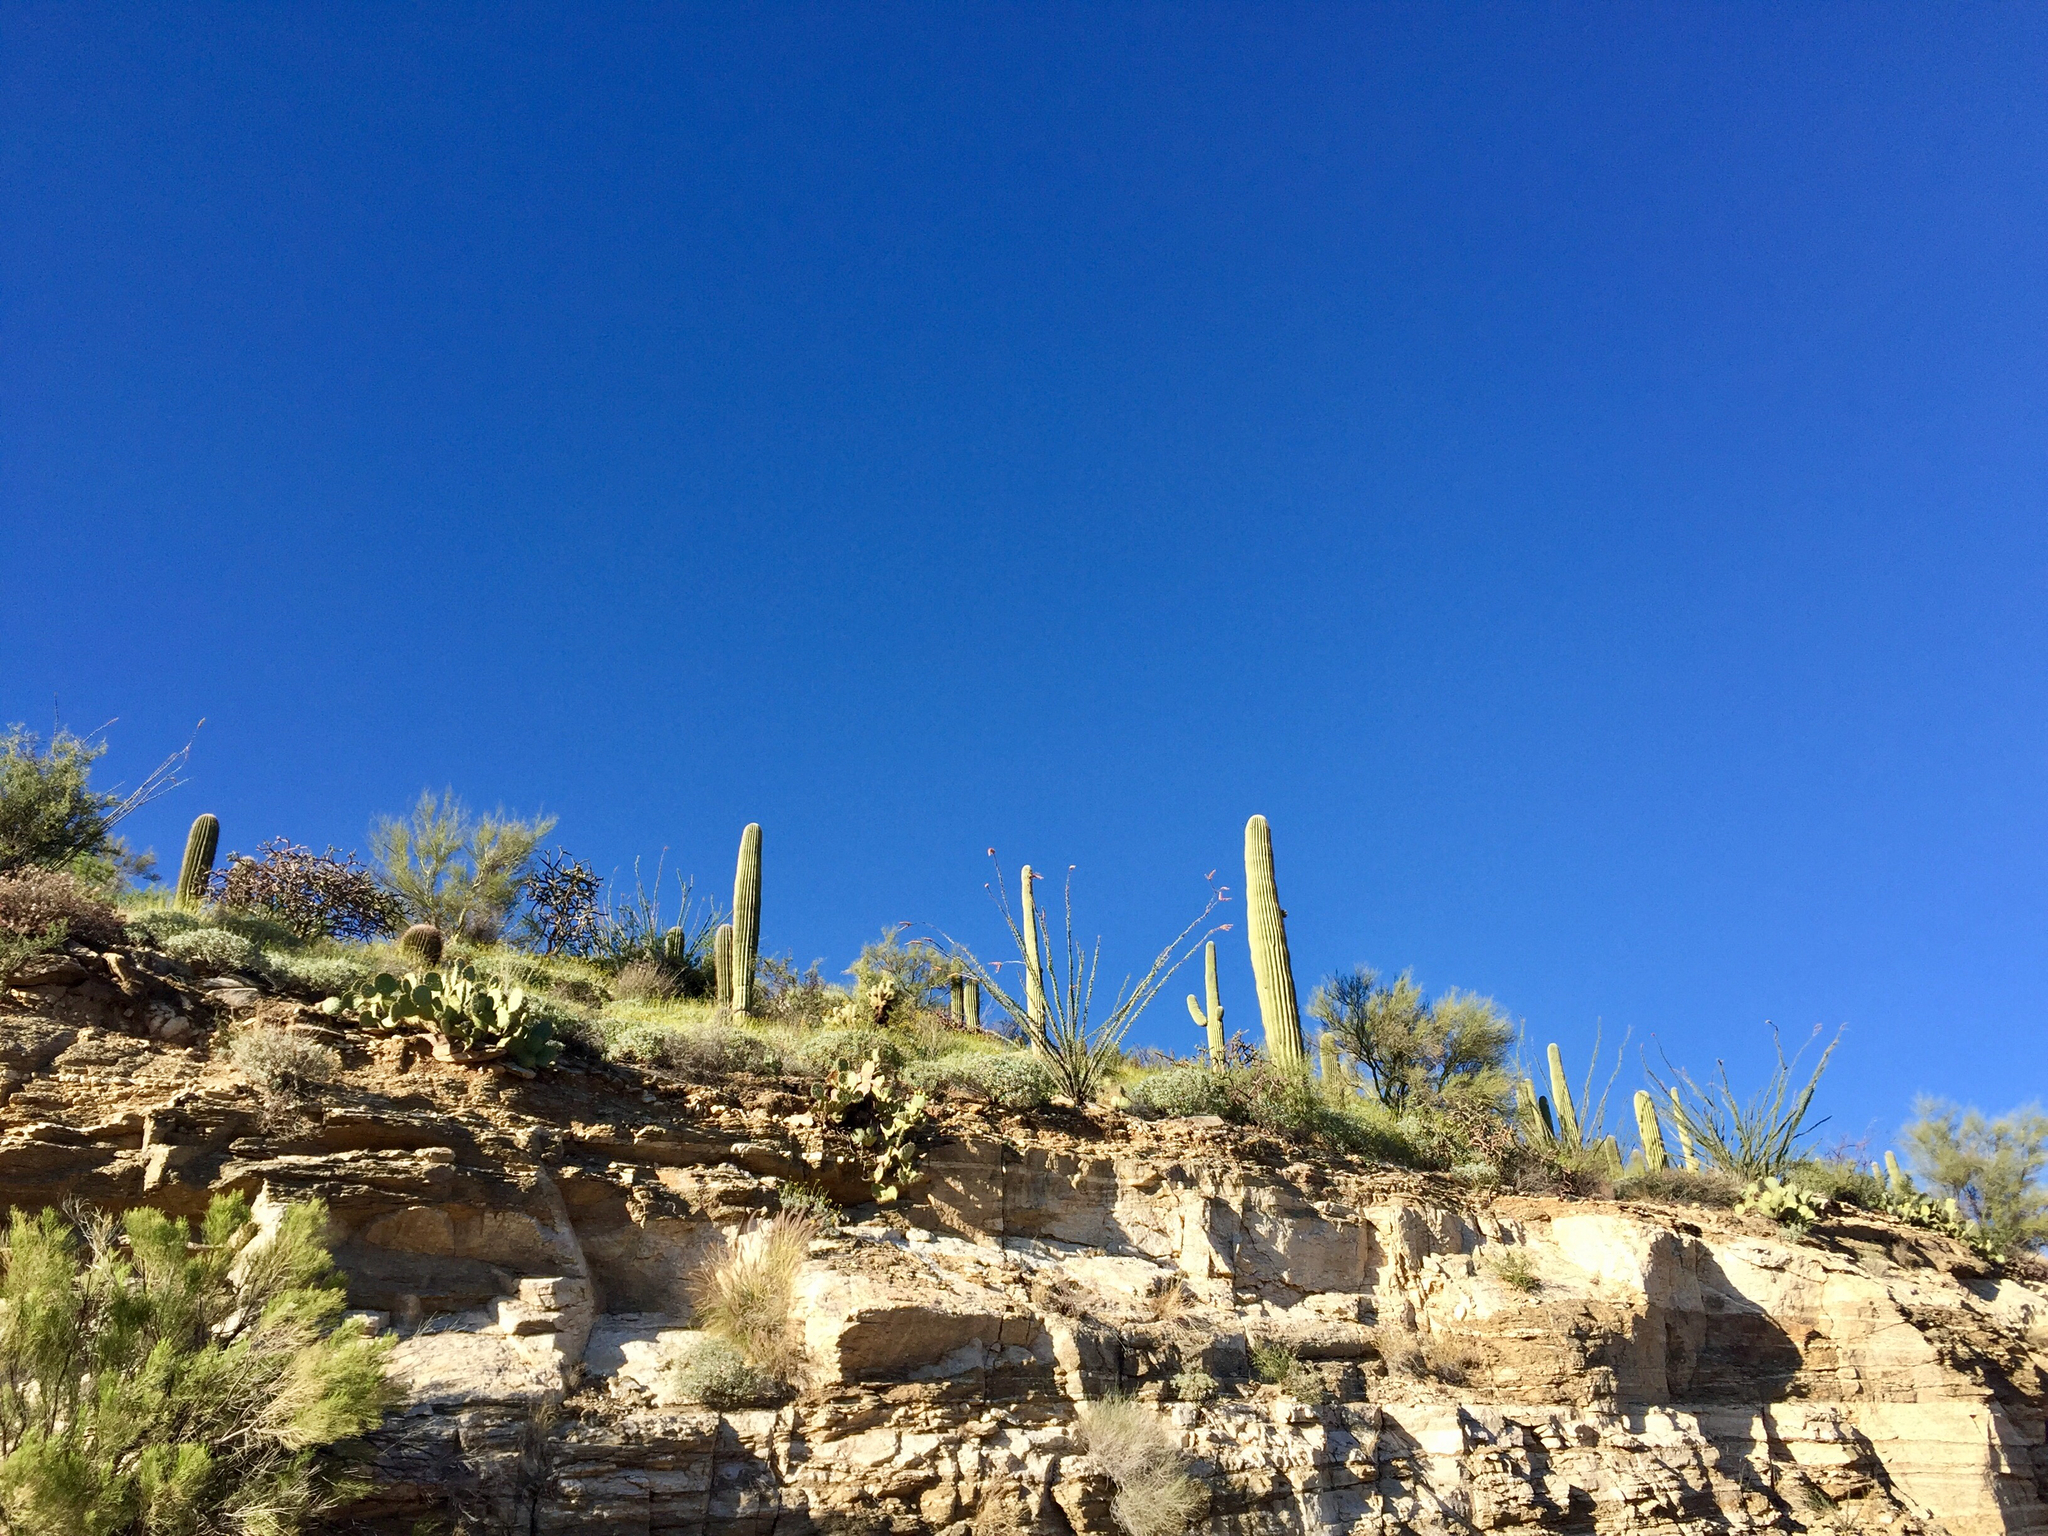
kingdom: Plantae
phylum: Tracheophyta
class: Magnoliopsida
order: Caryophyllales
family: Cactaceae
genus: Carnegiea
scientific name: Carnegiea gigantea
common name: Saguaro
